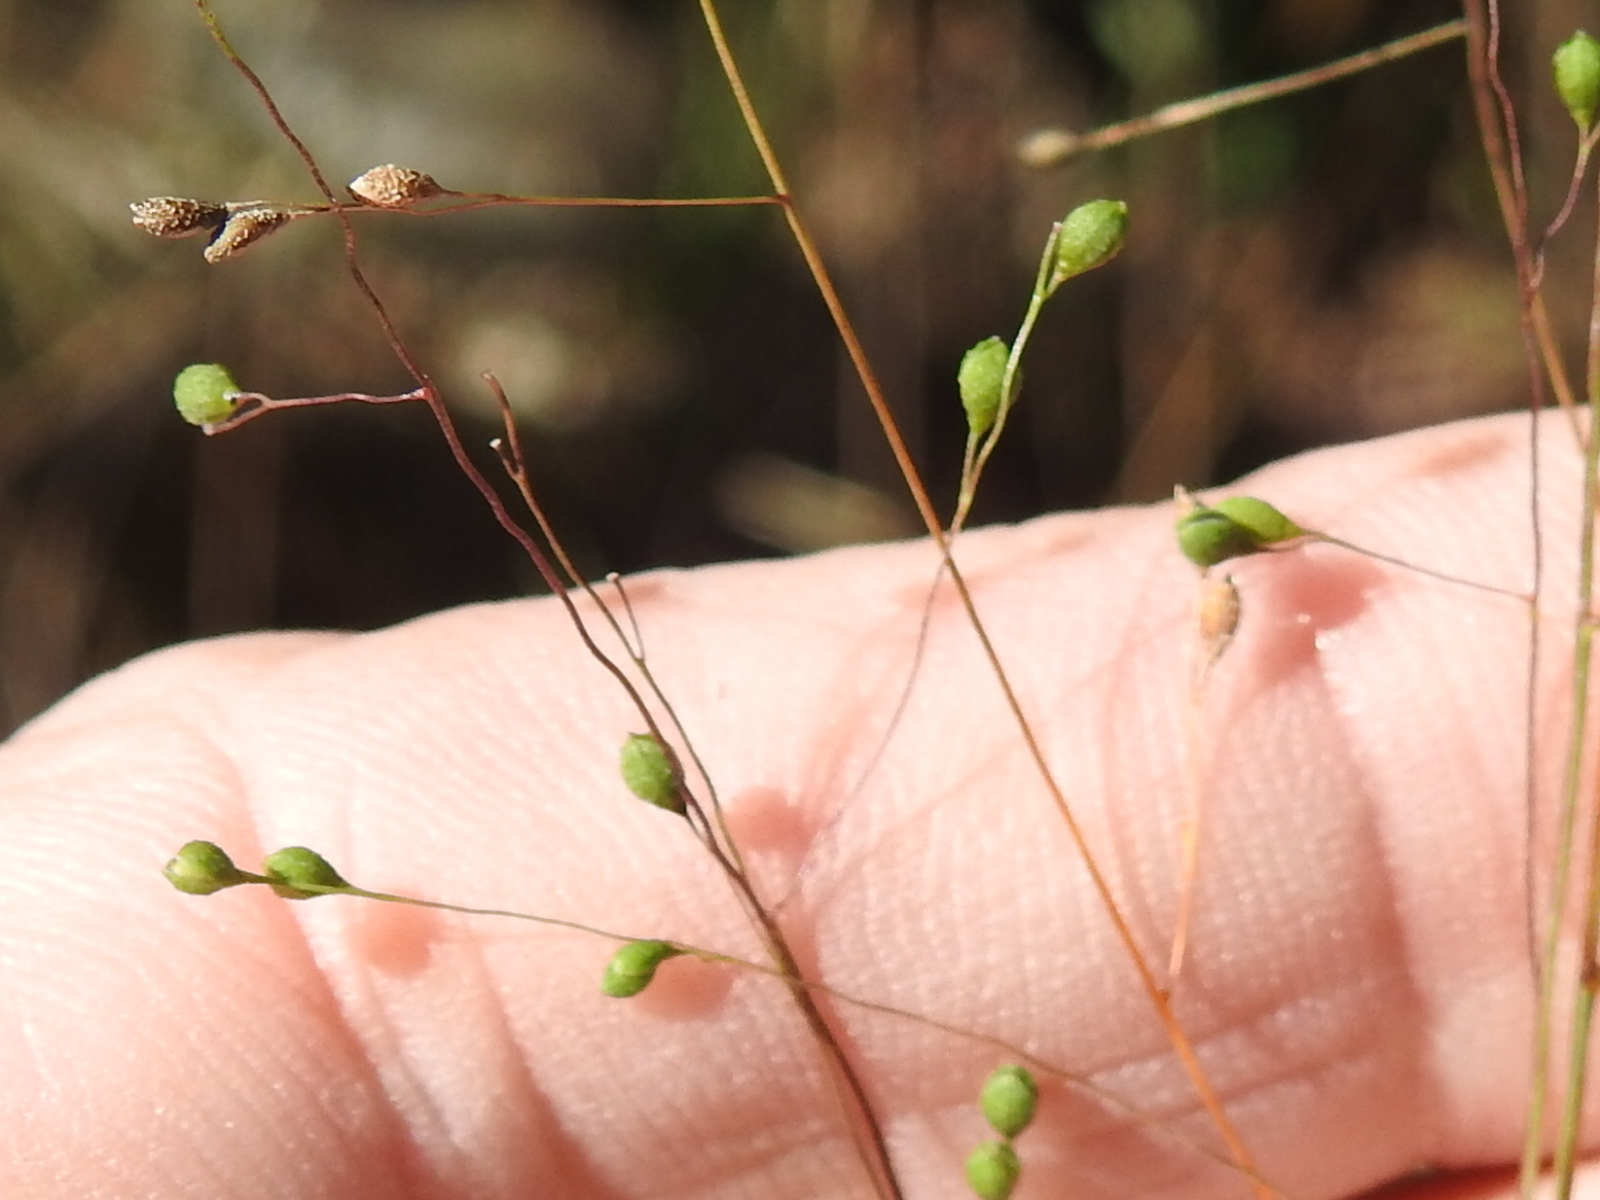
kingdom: Plantae
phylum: Tracheophyta
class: Liliopsida
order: Poales
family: Poaceae
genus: Kellochloa
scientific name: Kellochloa verrucosa
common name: Warty panic grass
